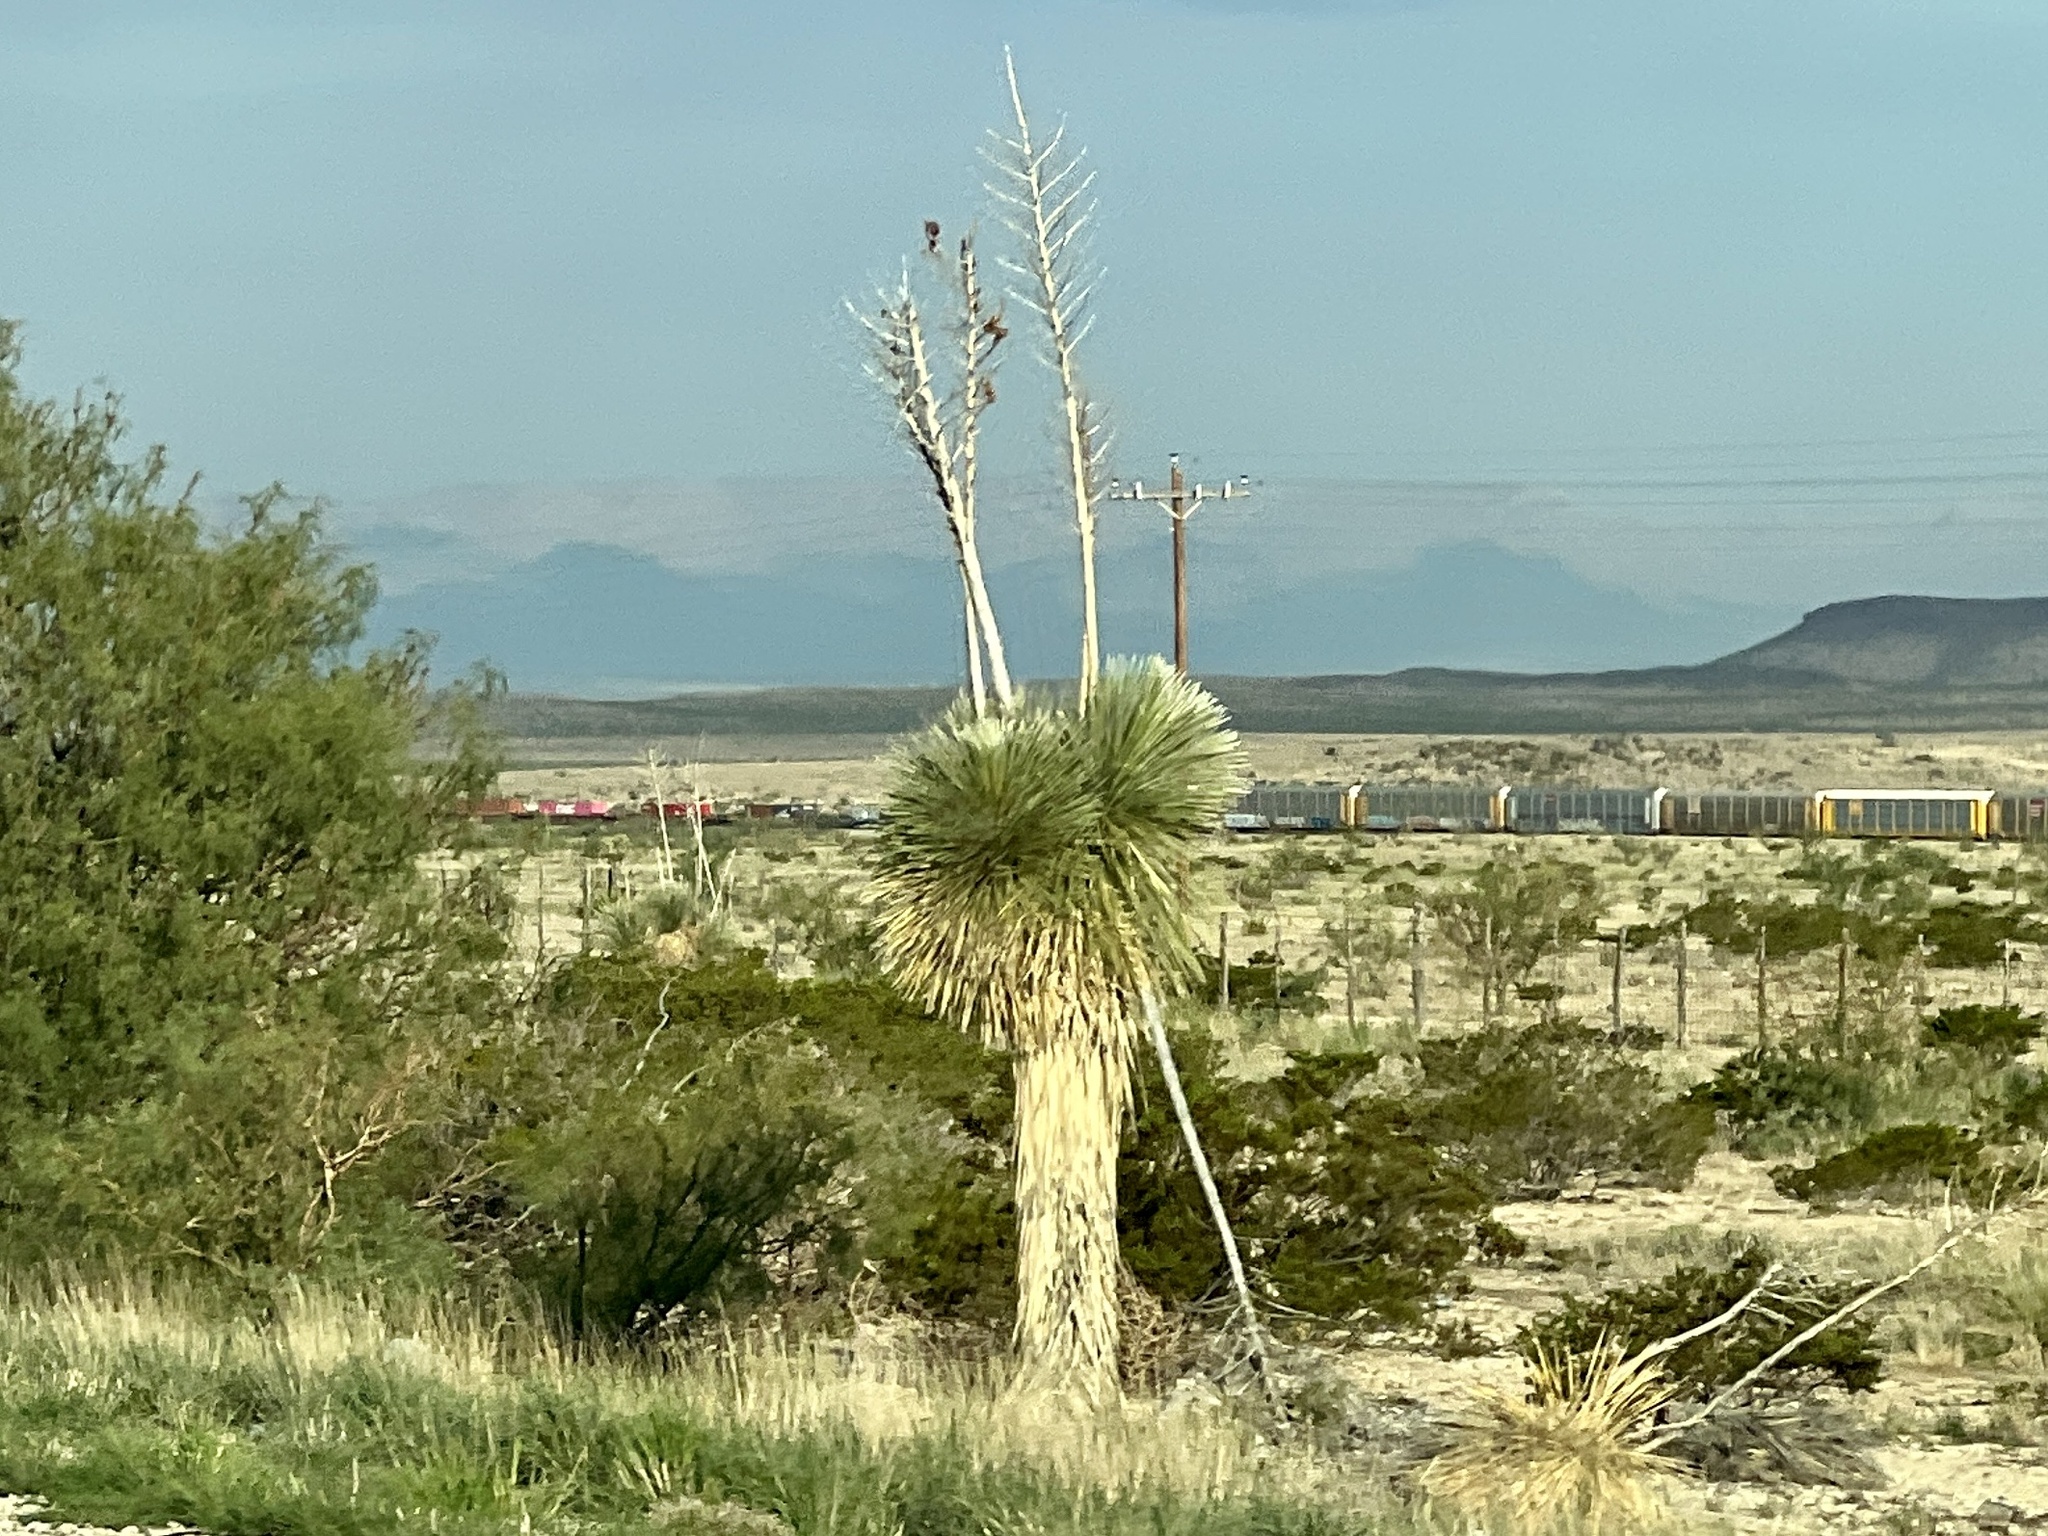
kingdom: Plantae
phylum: Tracheophyta
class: Liliopsida
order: Asparagales
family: Asparagaceae
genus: Yucca
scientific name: Yucca elata
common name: Palmella
